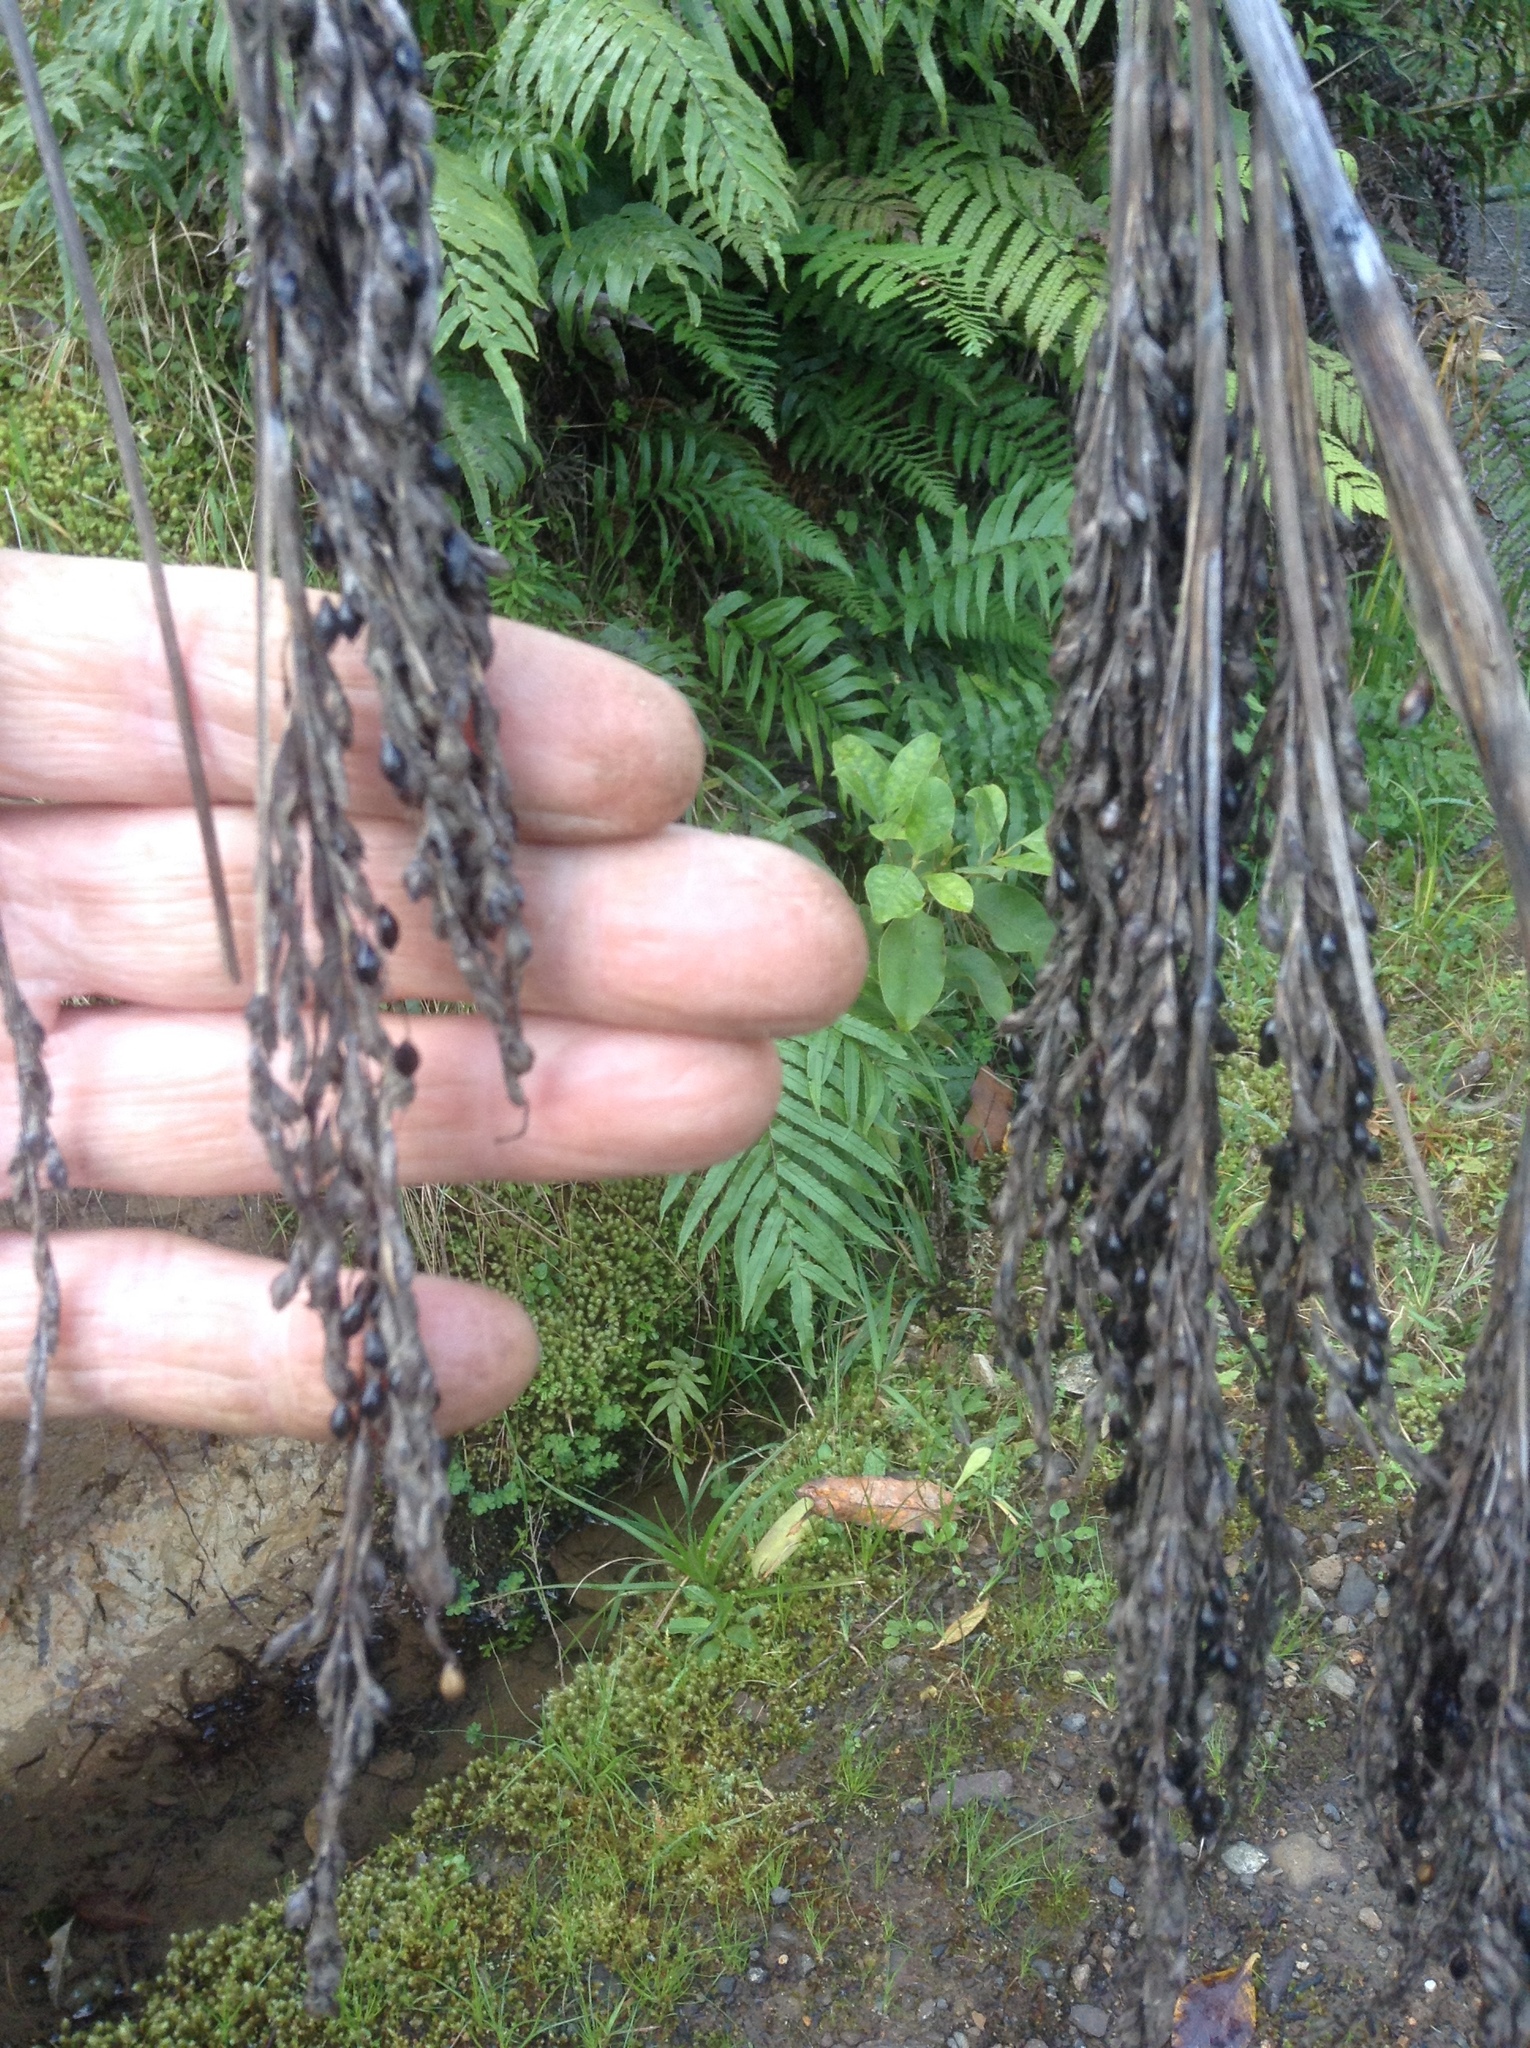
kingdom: Plantae
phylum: Tracheophyta
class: Liliopsida
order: Poales
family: Cyperaceae
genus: Gahnia
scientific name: Gahnia xanthocarpa
